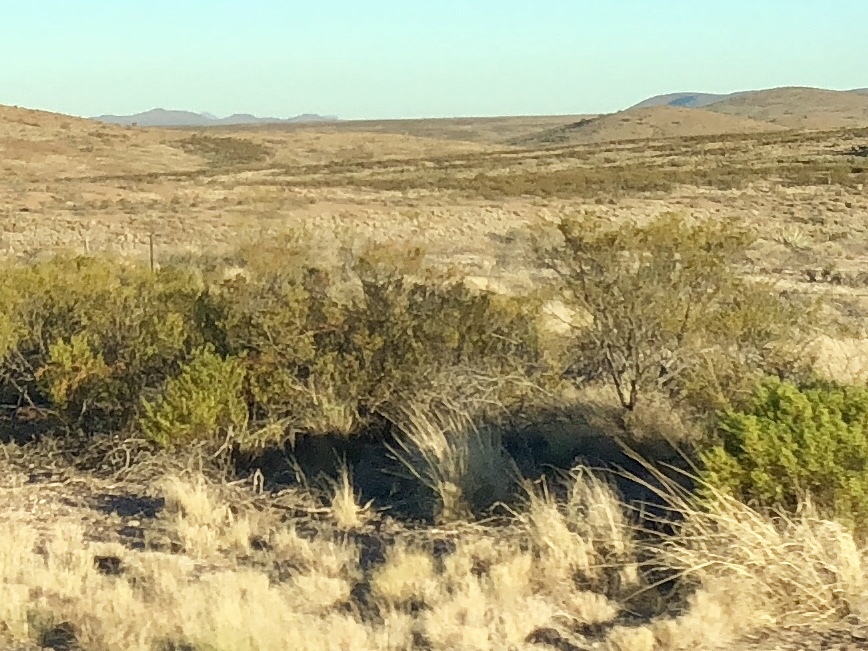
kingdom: Plantae
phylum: Tracheophyta
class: Magnoliopsida
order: Zygophyllales
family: Zygophyllaceae
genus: Larrea
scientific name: Larrea tridentata
